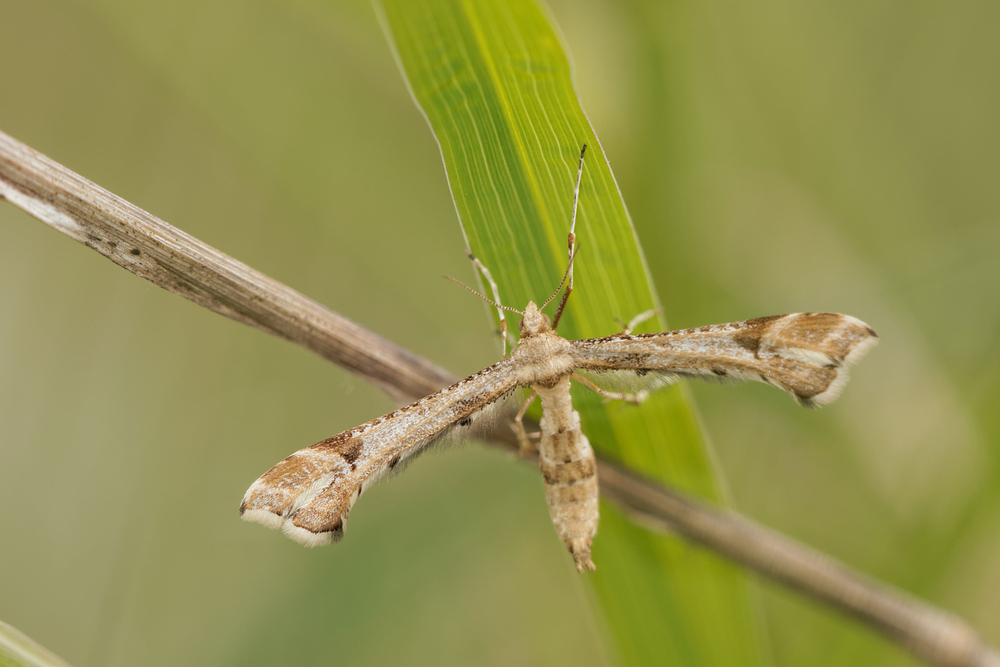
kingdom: Animalia
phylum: Arthropoda
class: Insecta
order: Lepidoptera
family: Pterophoridae
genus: Platyptilia
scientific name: Platyptilia gonodactyla
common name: Triangle plume
